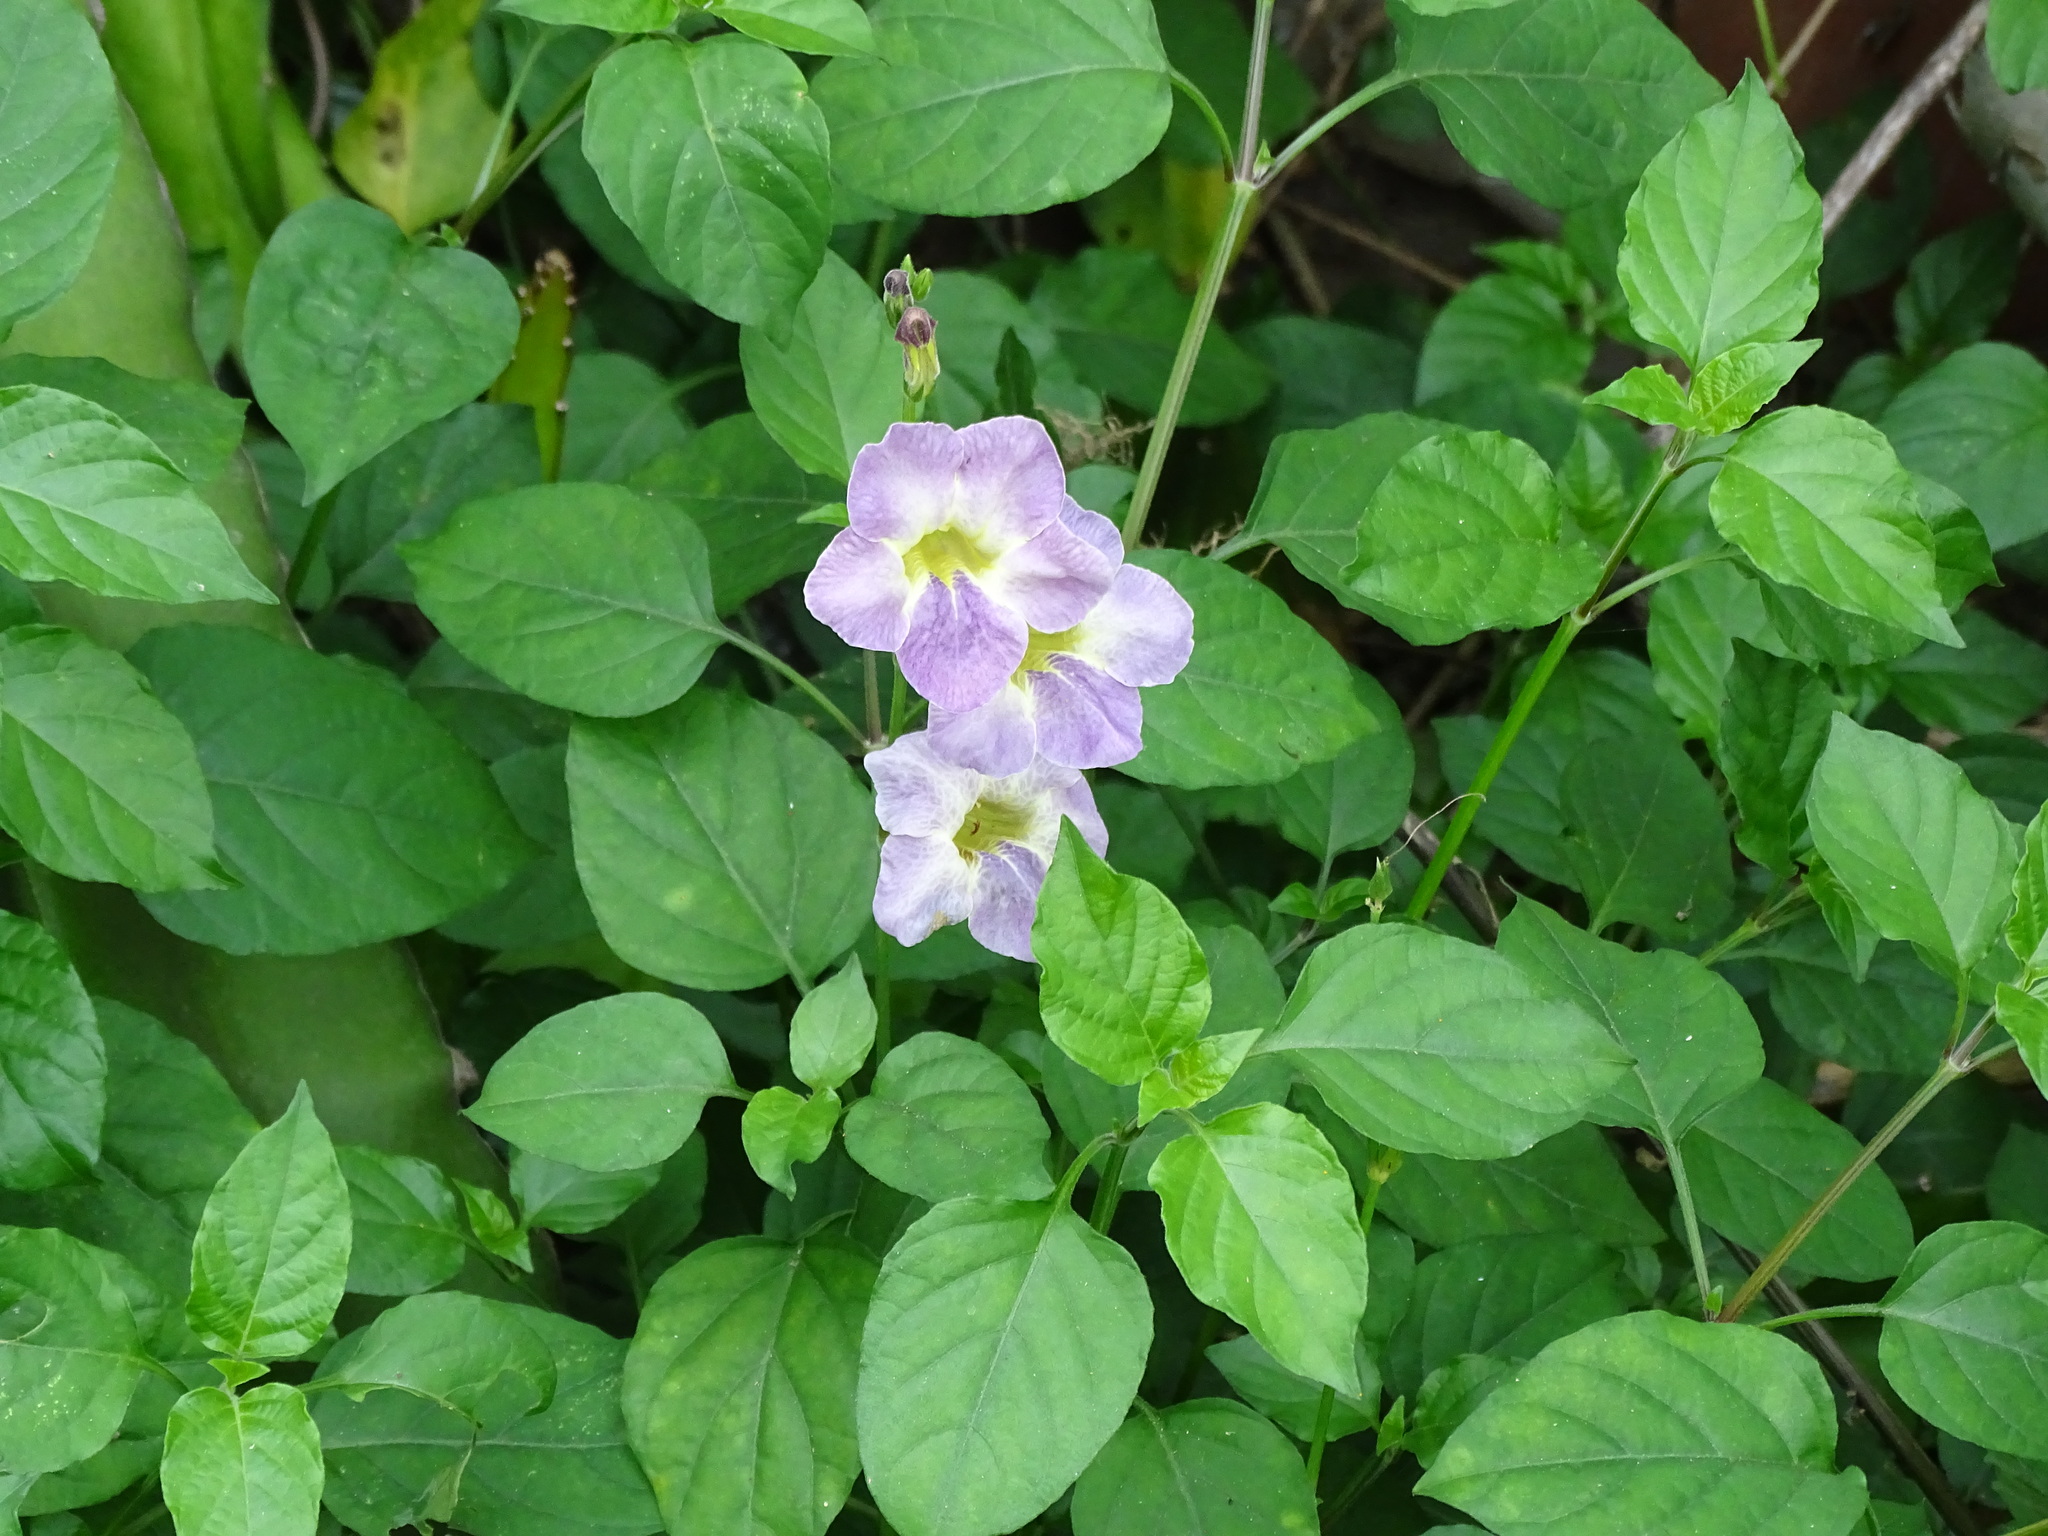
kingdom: Plantae
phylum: Tracheophyta
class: Magnoliopsida
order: Lamiales
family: Acanthaceae
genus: Asystasia
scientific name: Asystasia gangetica
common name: Chinese violet
